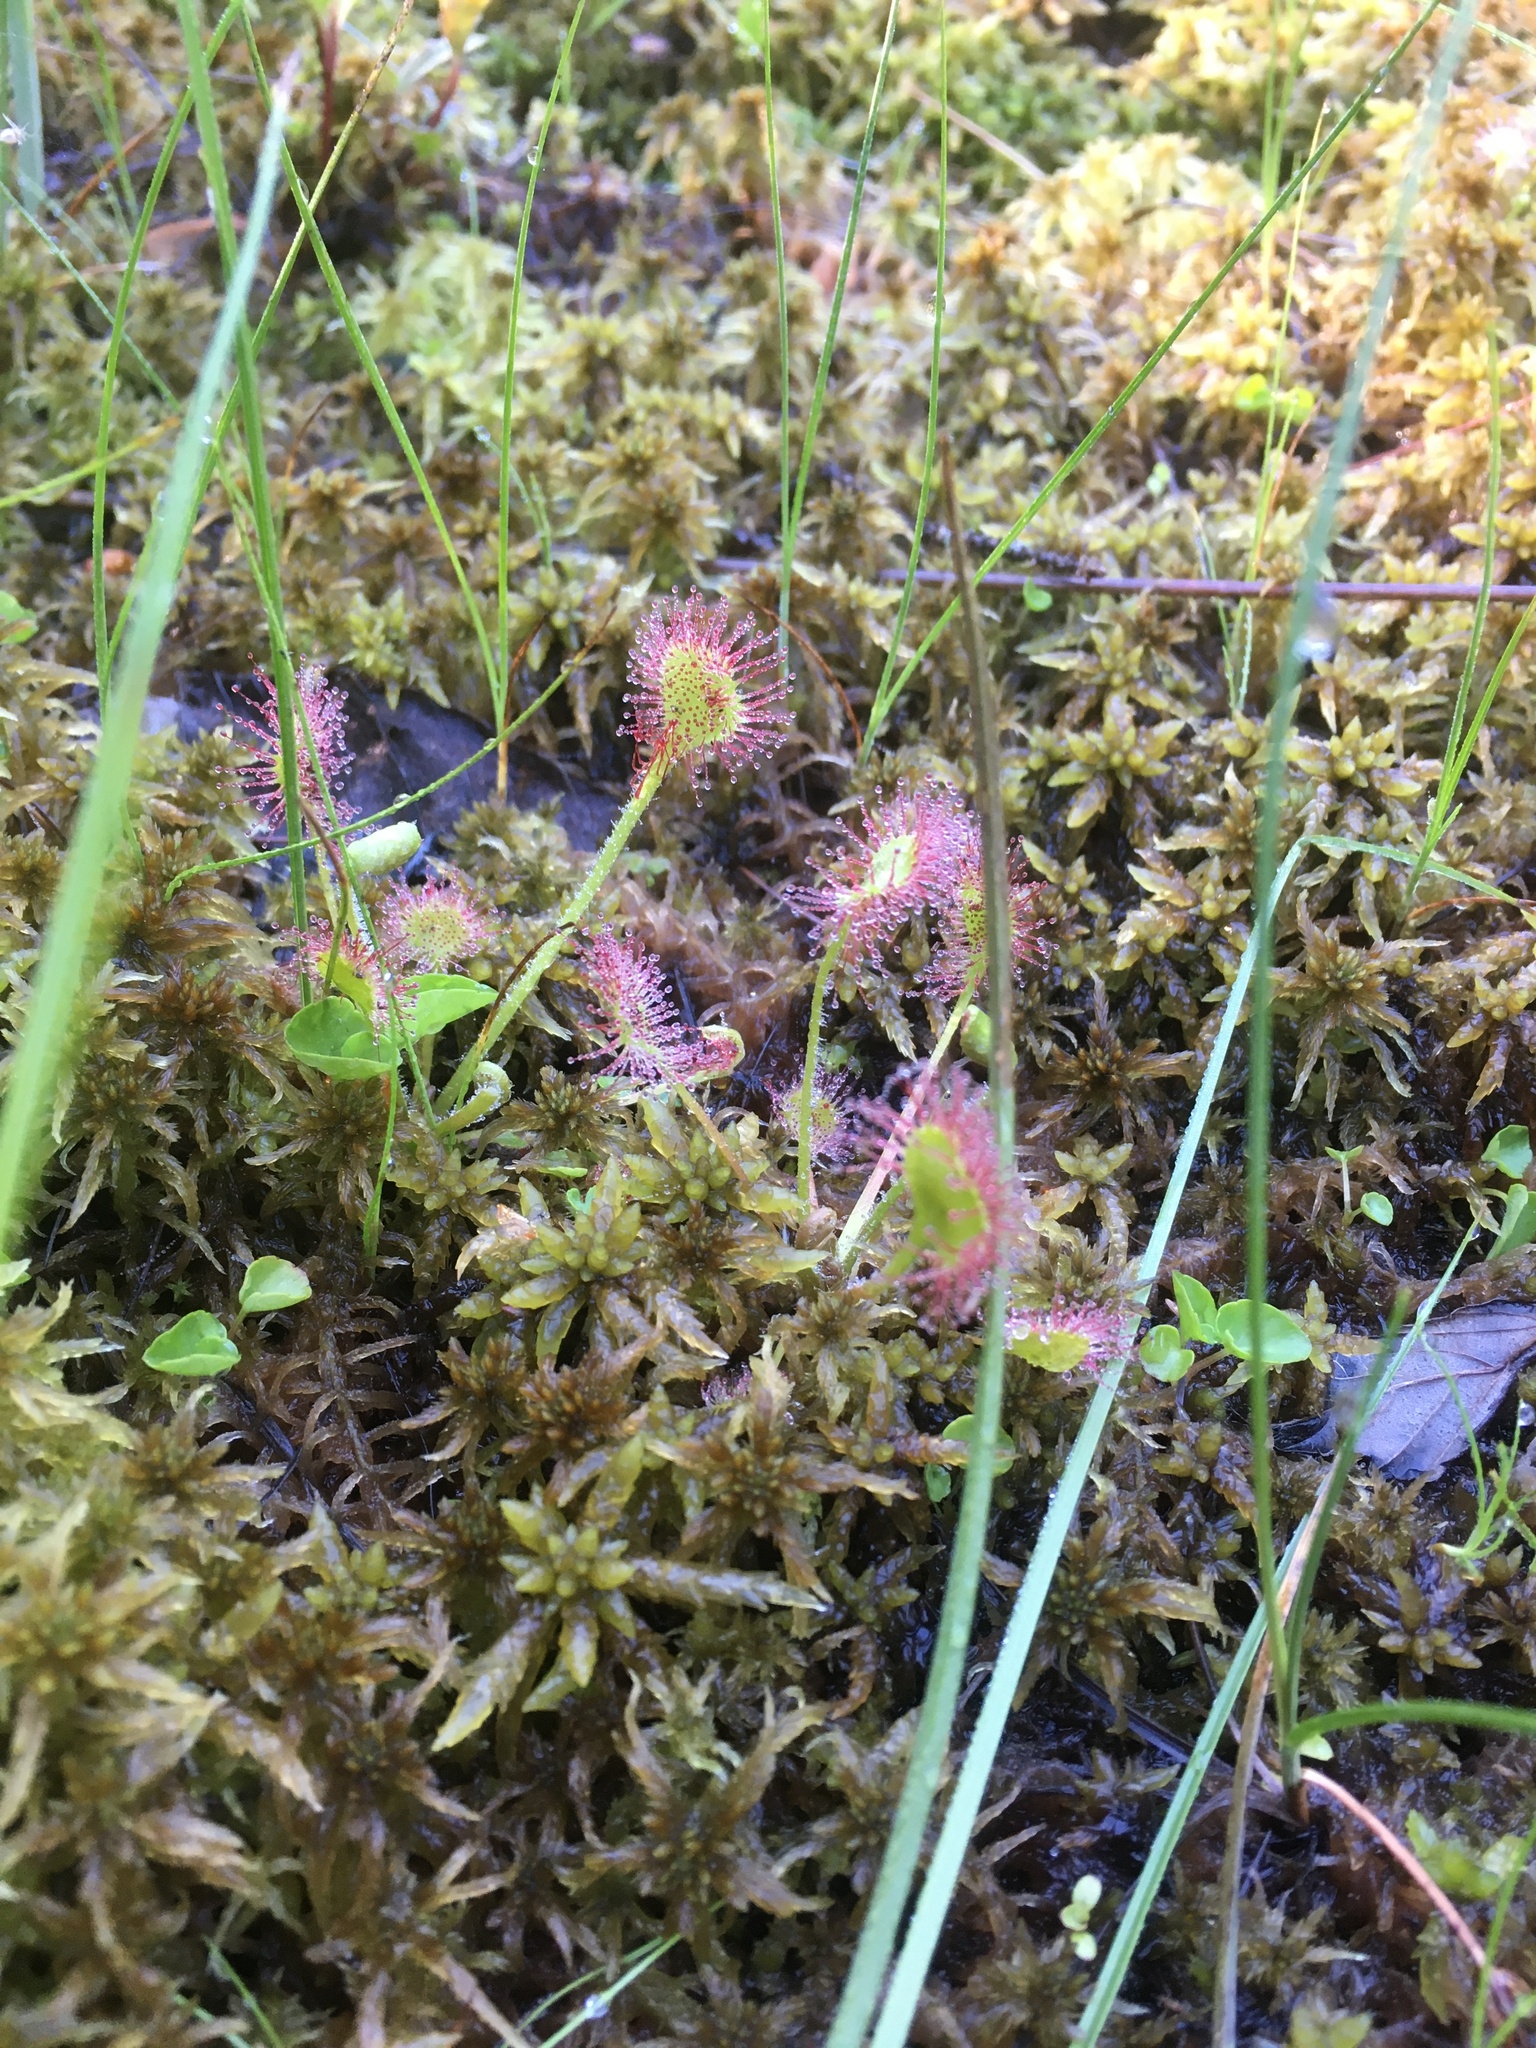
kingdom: Plantae
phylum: Tracheophyta
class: Magnoliopsida
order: Caryophyllales
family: Droseraceae
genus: Drosera
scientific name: Drosera rotundifolia
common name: Round-leaved sundew
